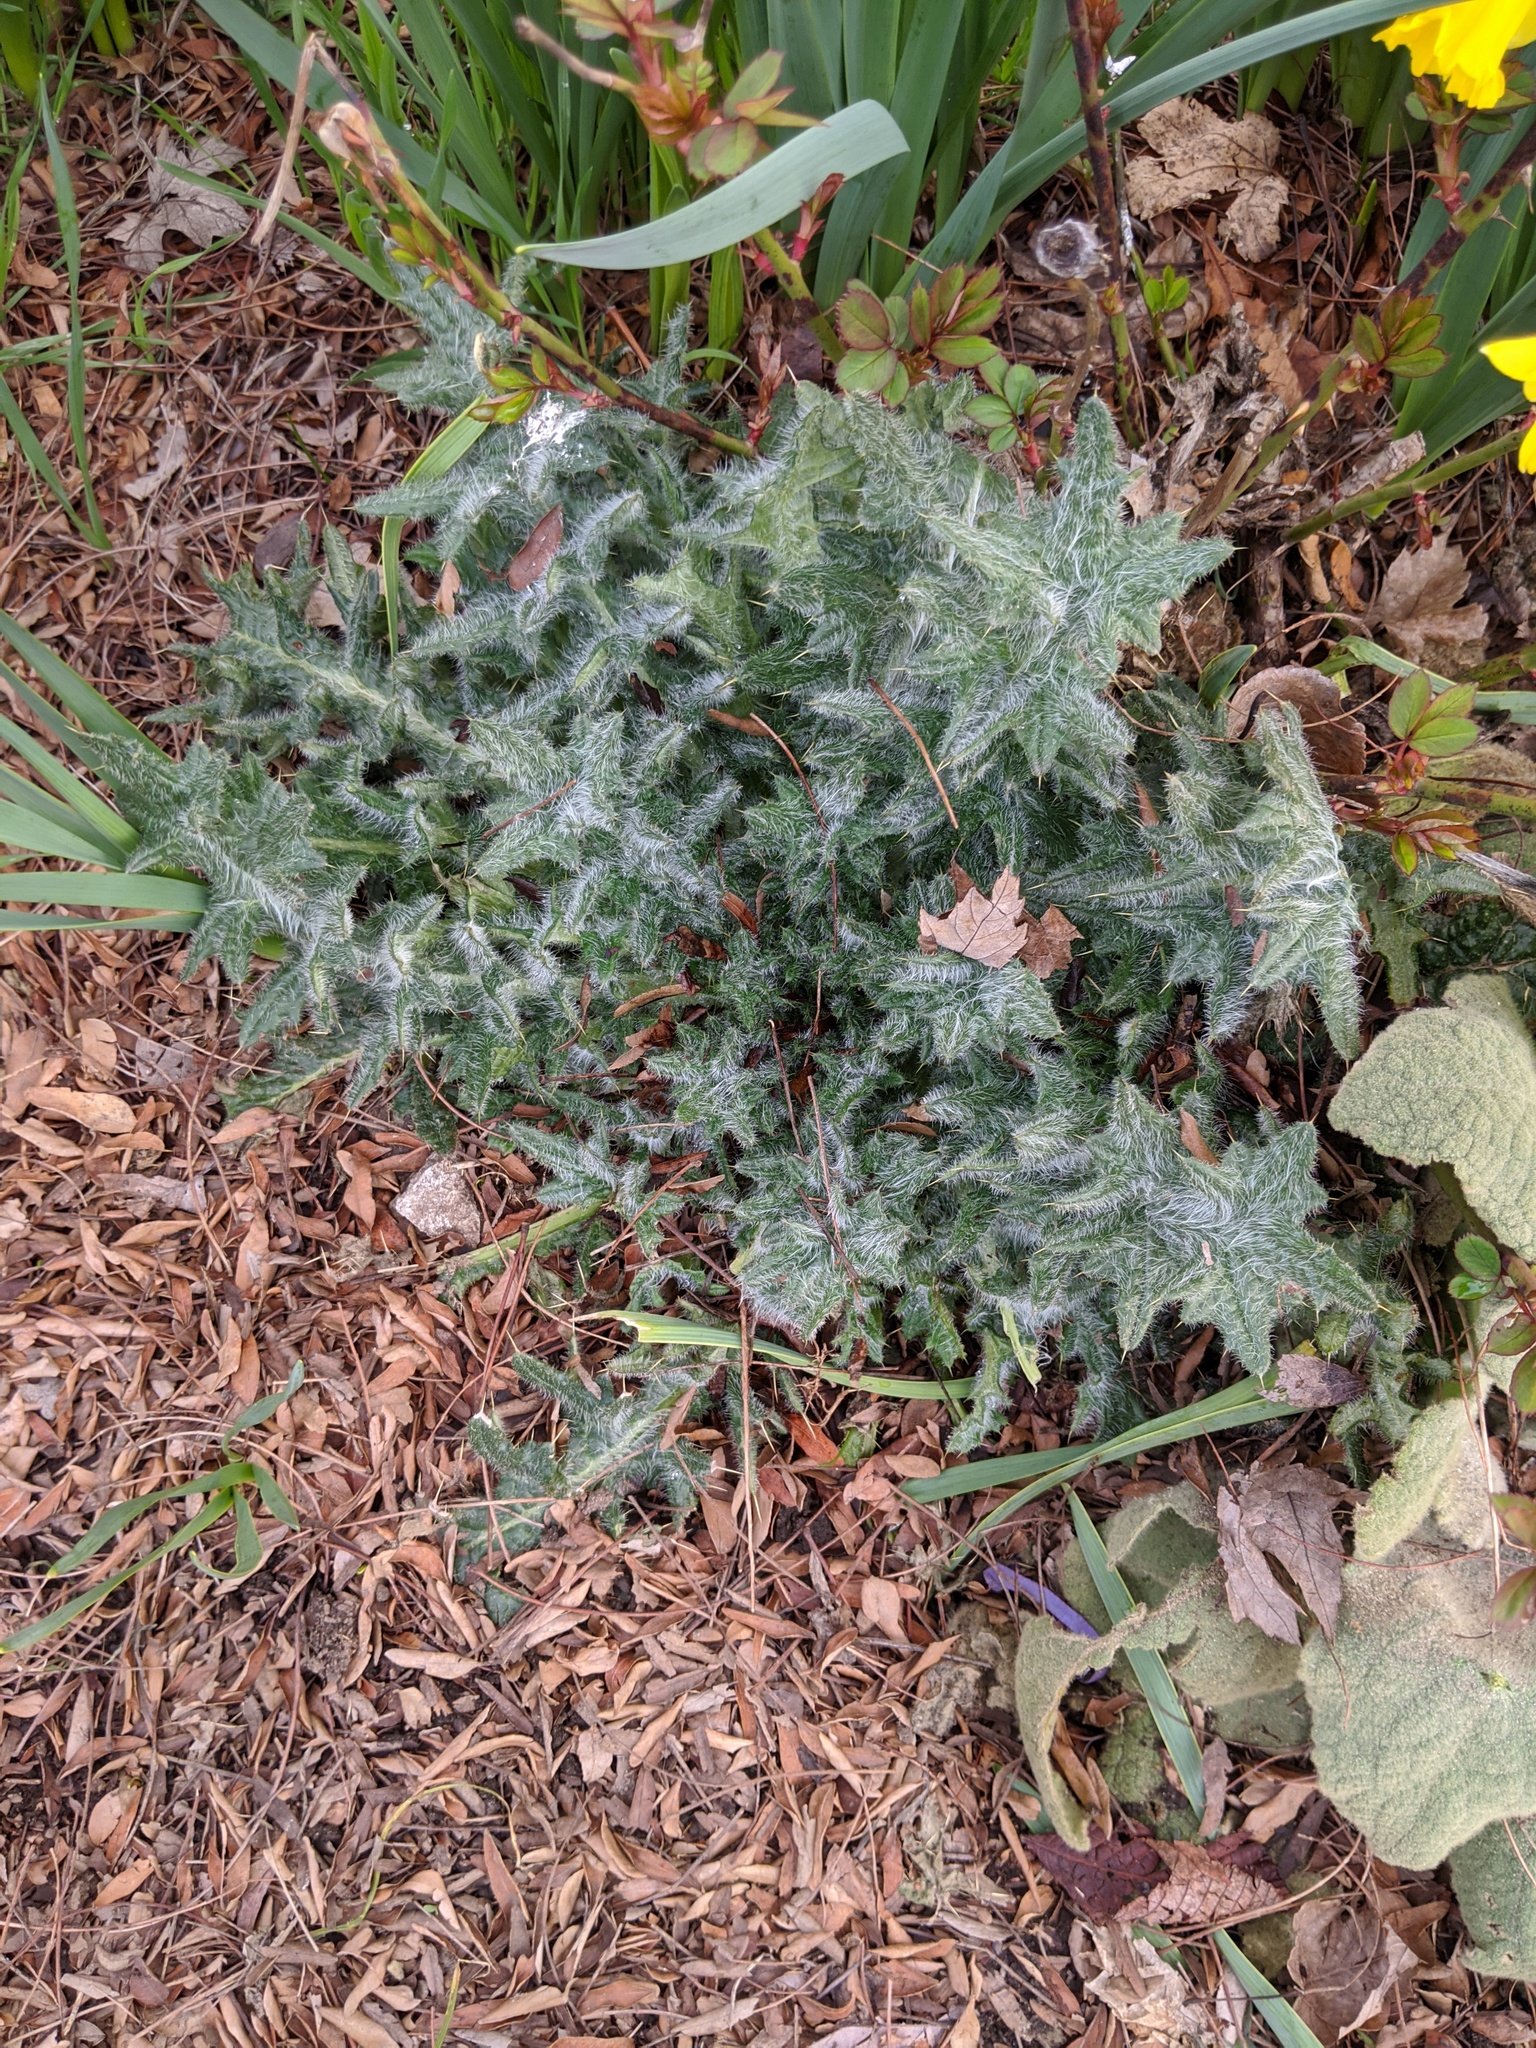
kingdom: Plantae
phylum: Tracheophyta
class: Magnoliopsida
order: Asterales
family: Asteraceae
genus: Cirsium
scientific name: Cirsium vulgare
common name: Bull thistle
